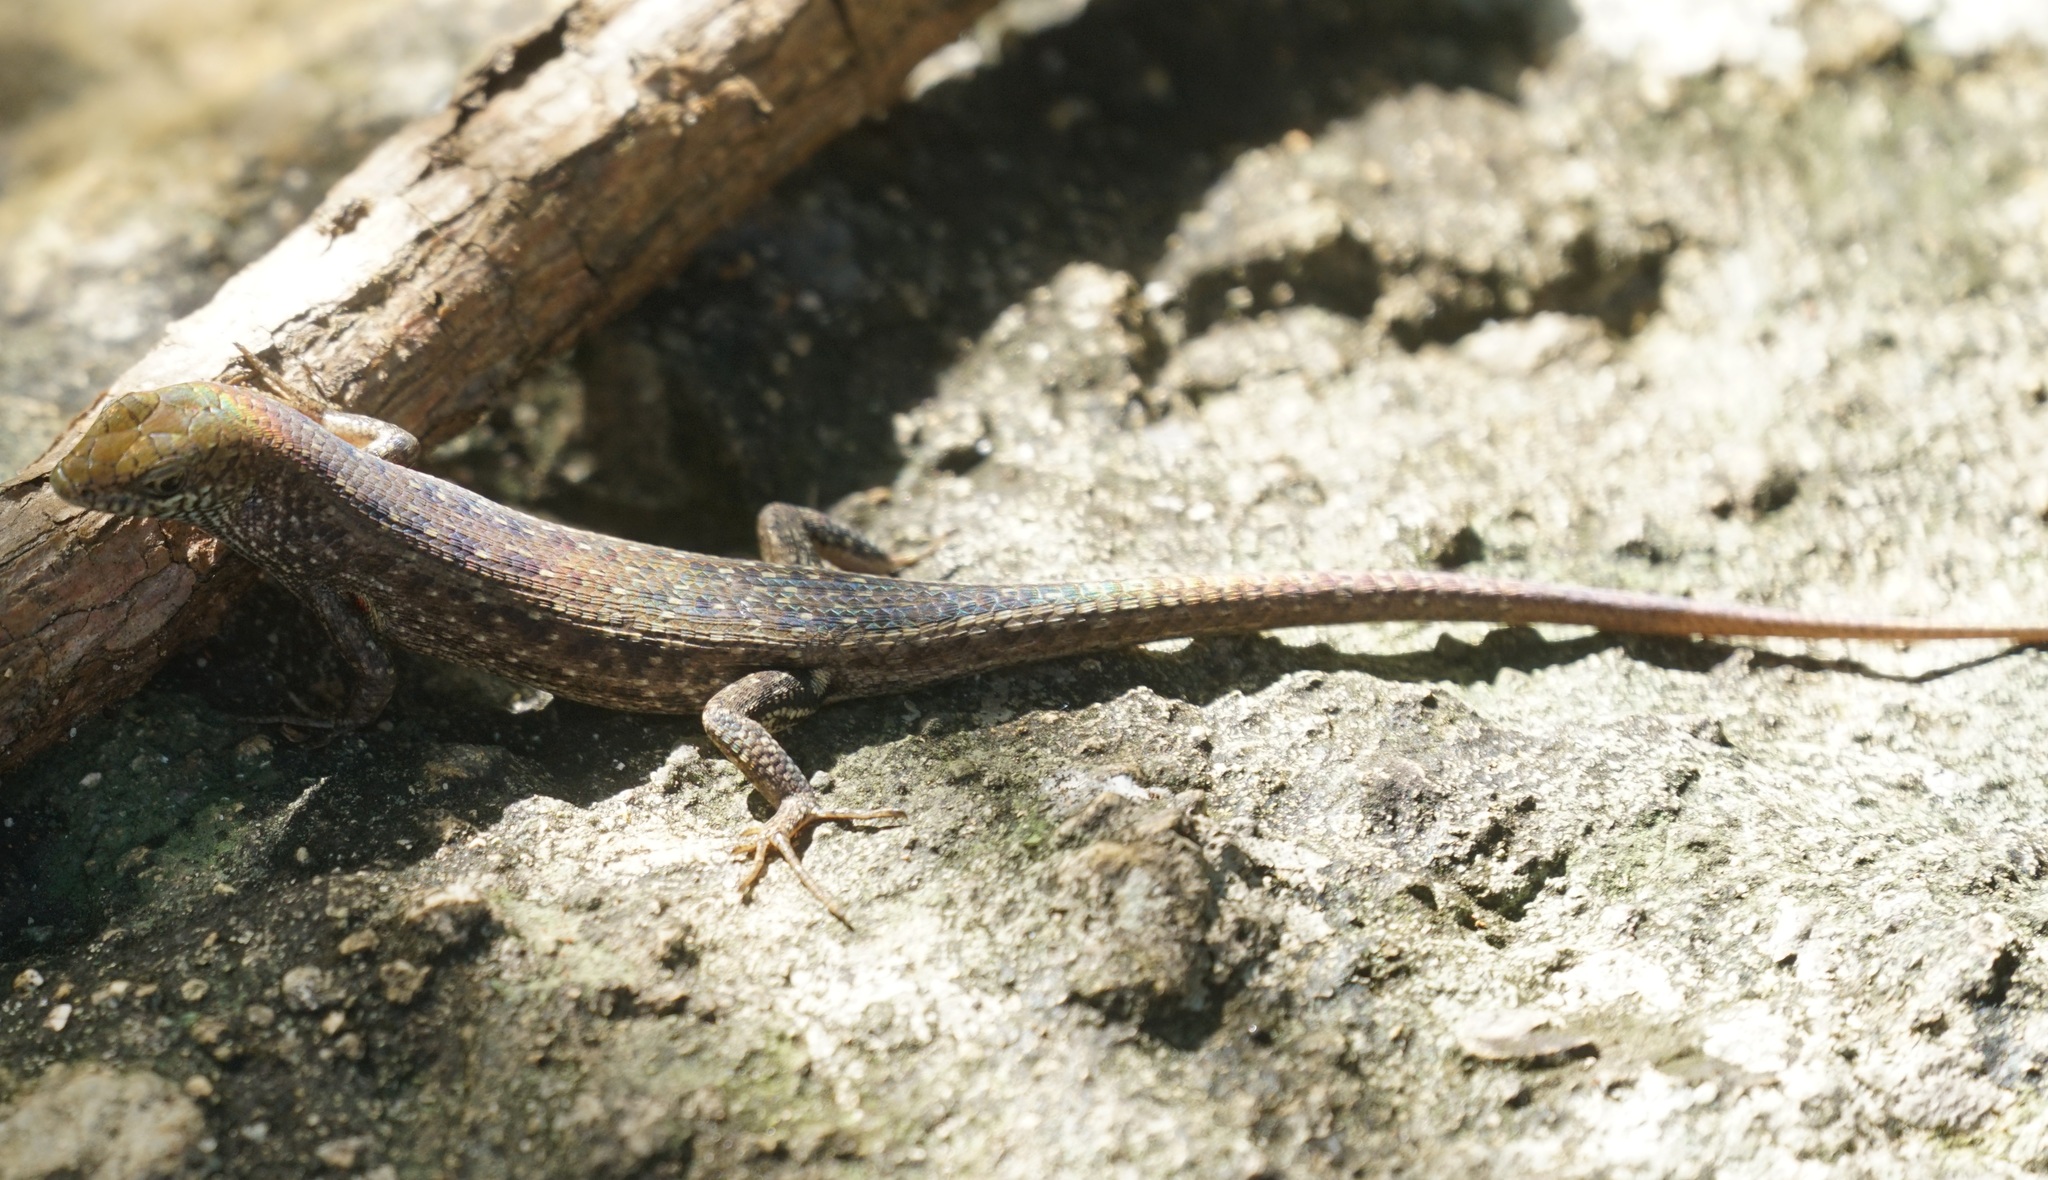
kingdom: Animalia
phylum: Chordata
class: Squamata
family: Scincidae
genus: Carlia
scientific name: Carlia inconnexa
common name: Whitsunday rainbow skink
